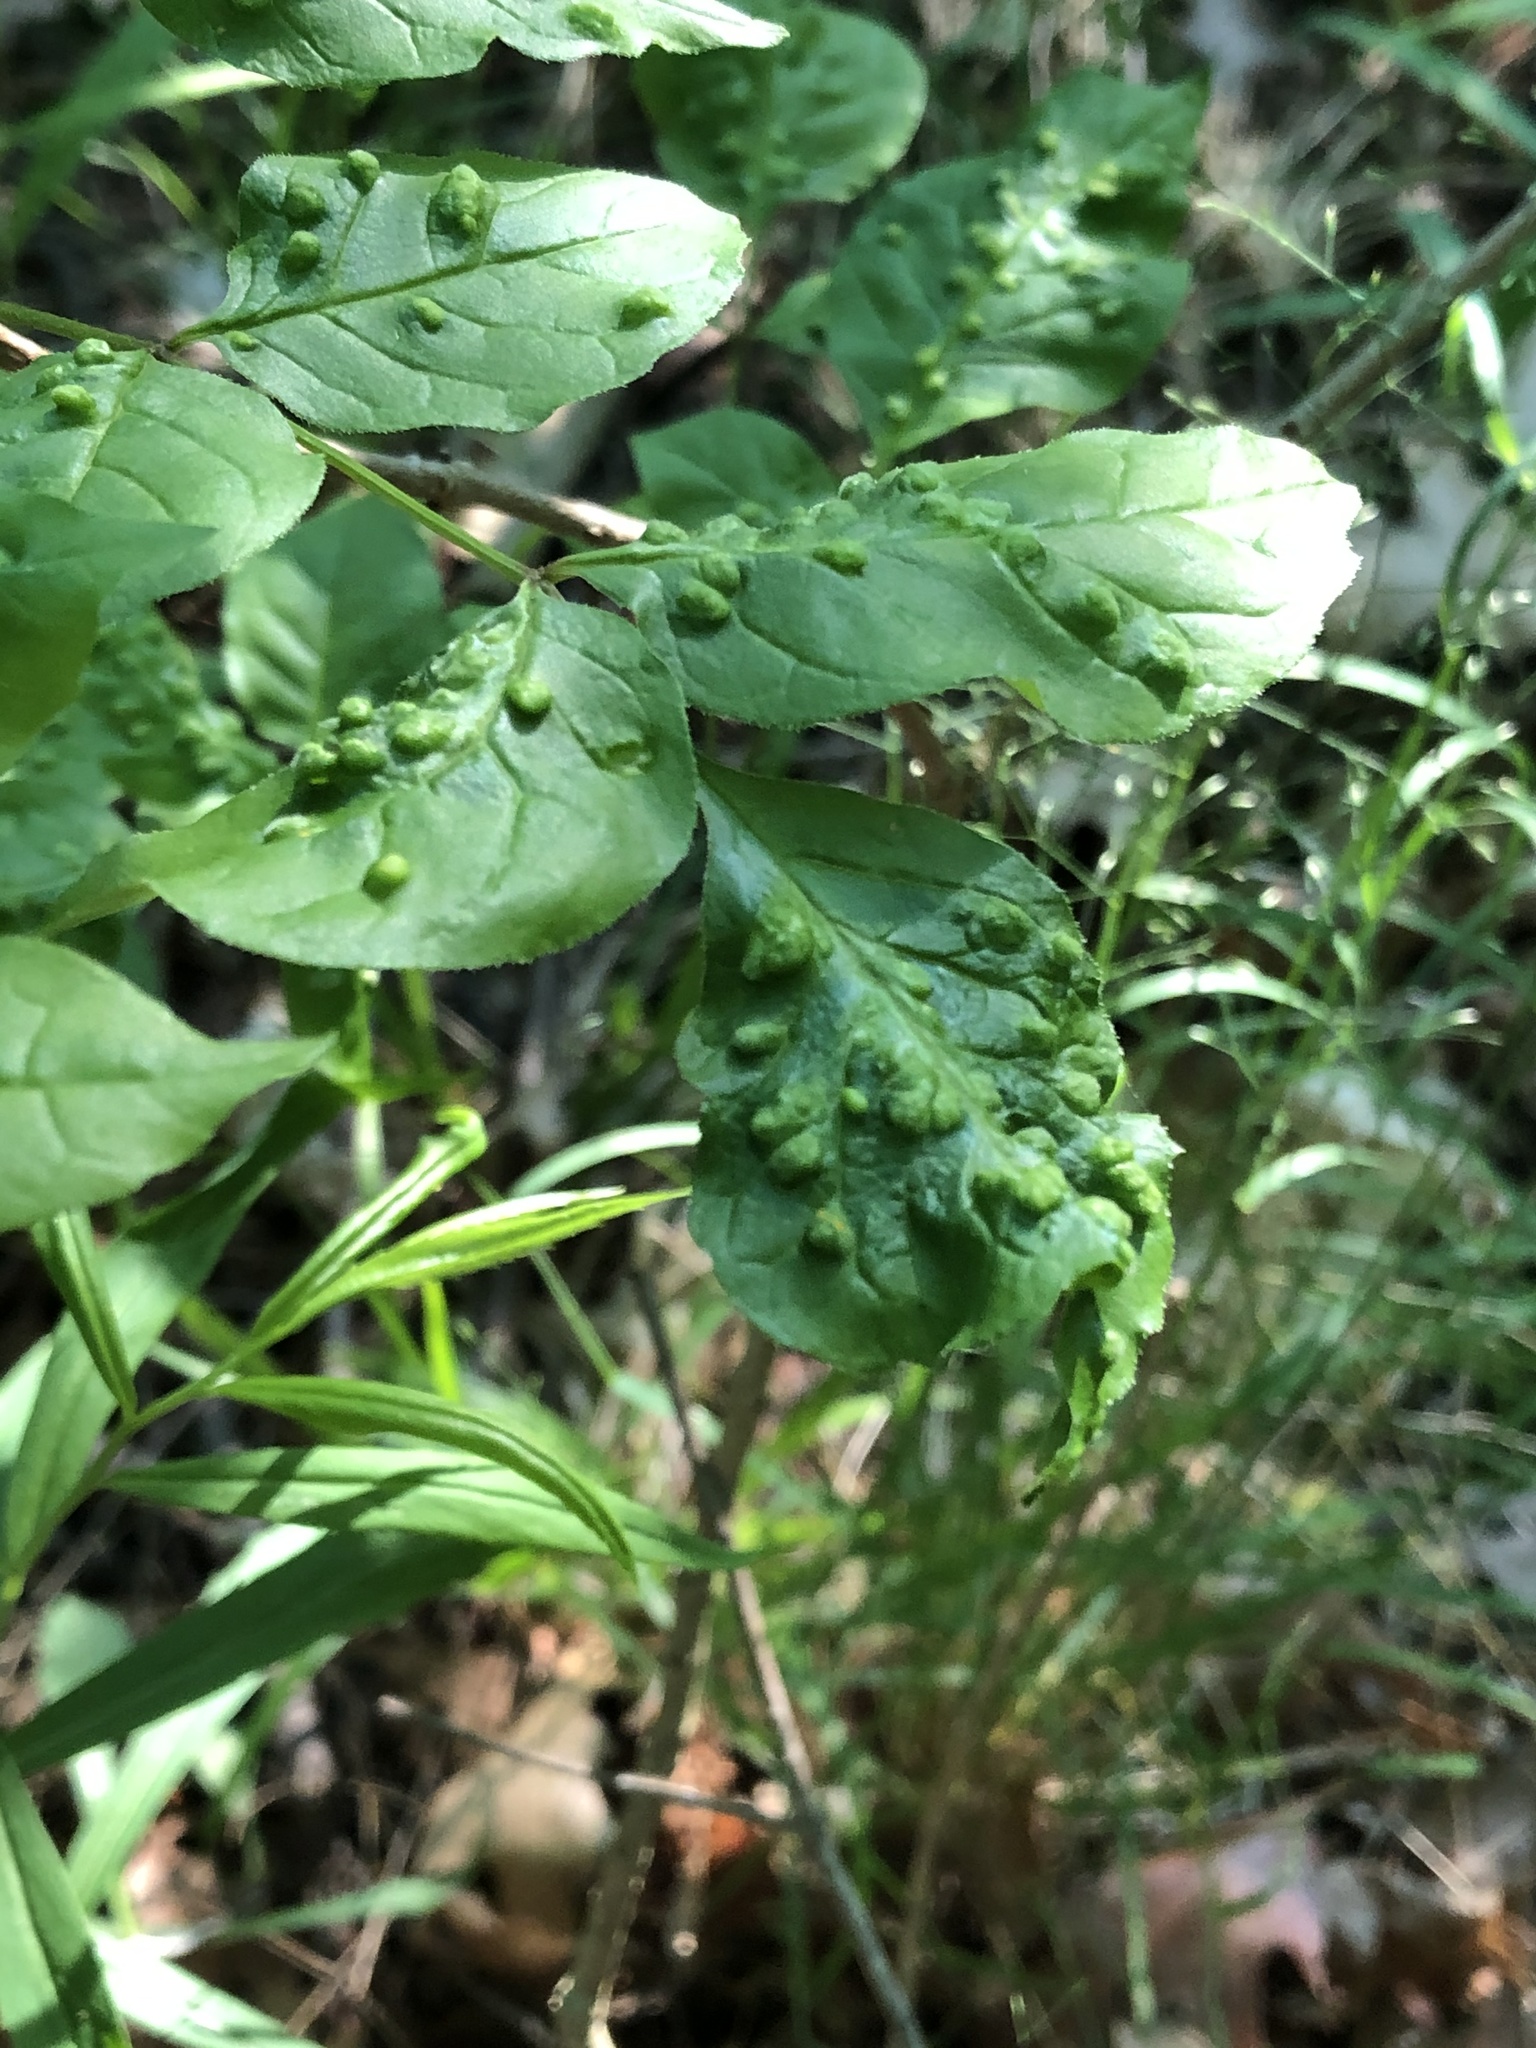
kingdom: Animalia
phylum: Arthropoda
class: Arachnida
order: Trombidiformes
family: Eriophyidae
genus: Aceria
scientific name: Aceria fraxinicola
